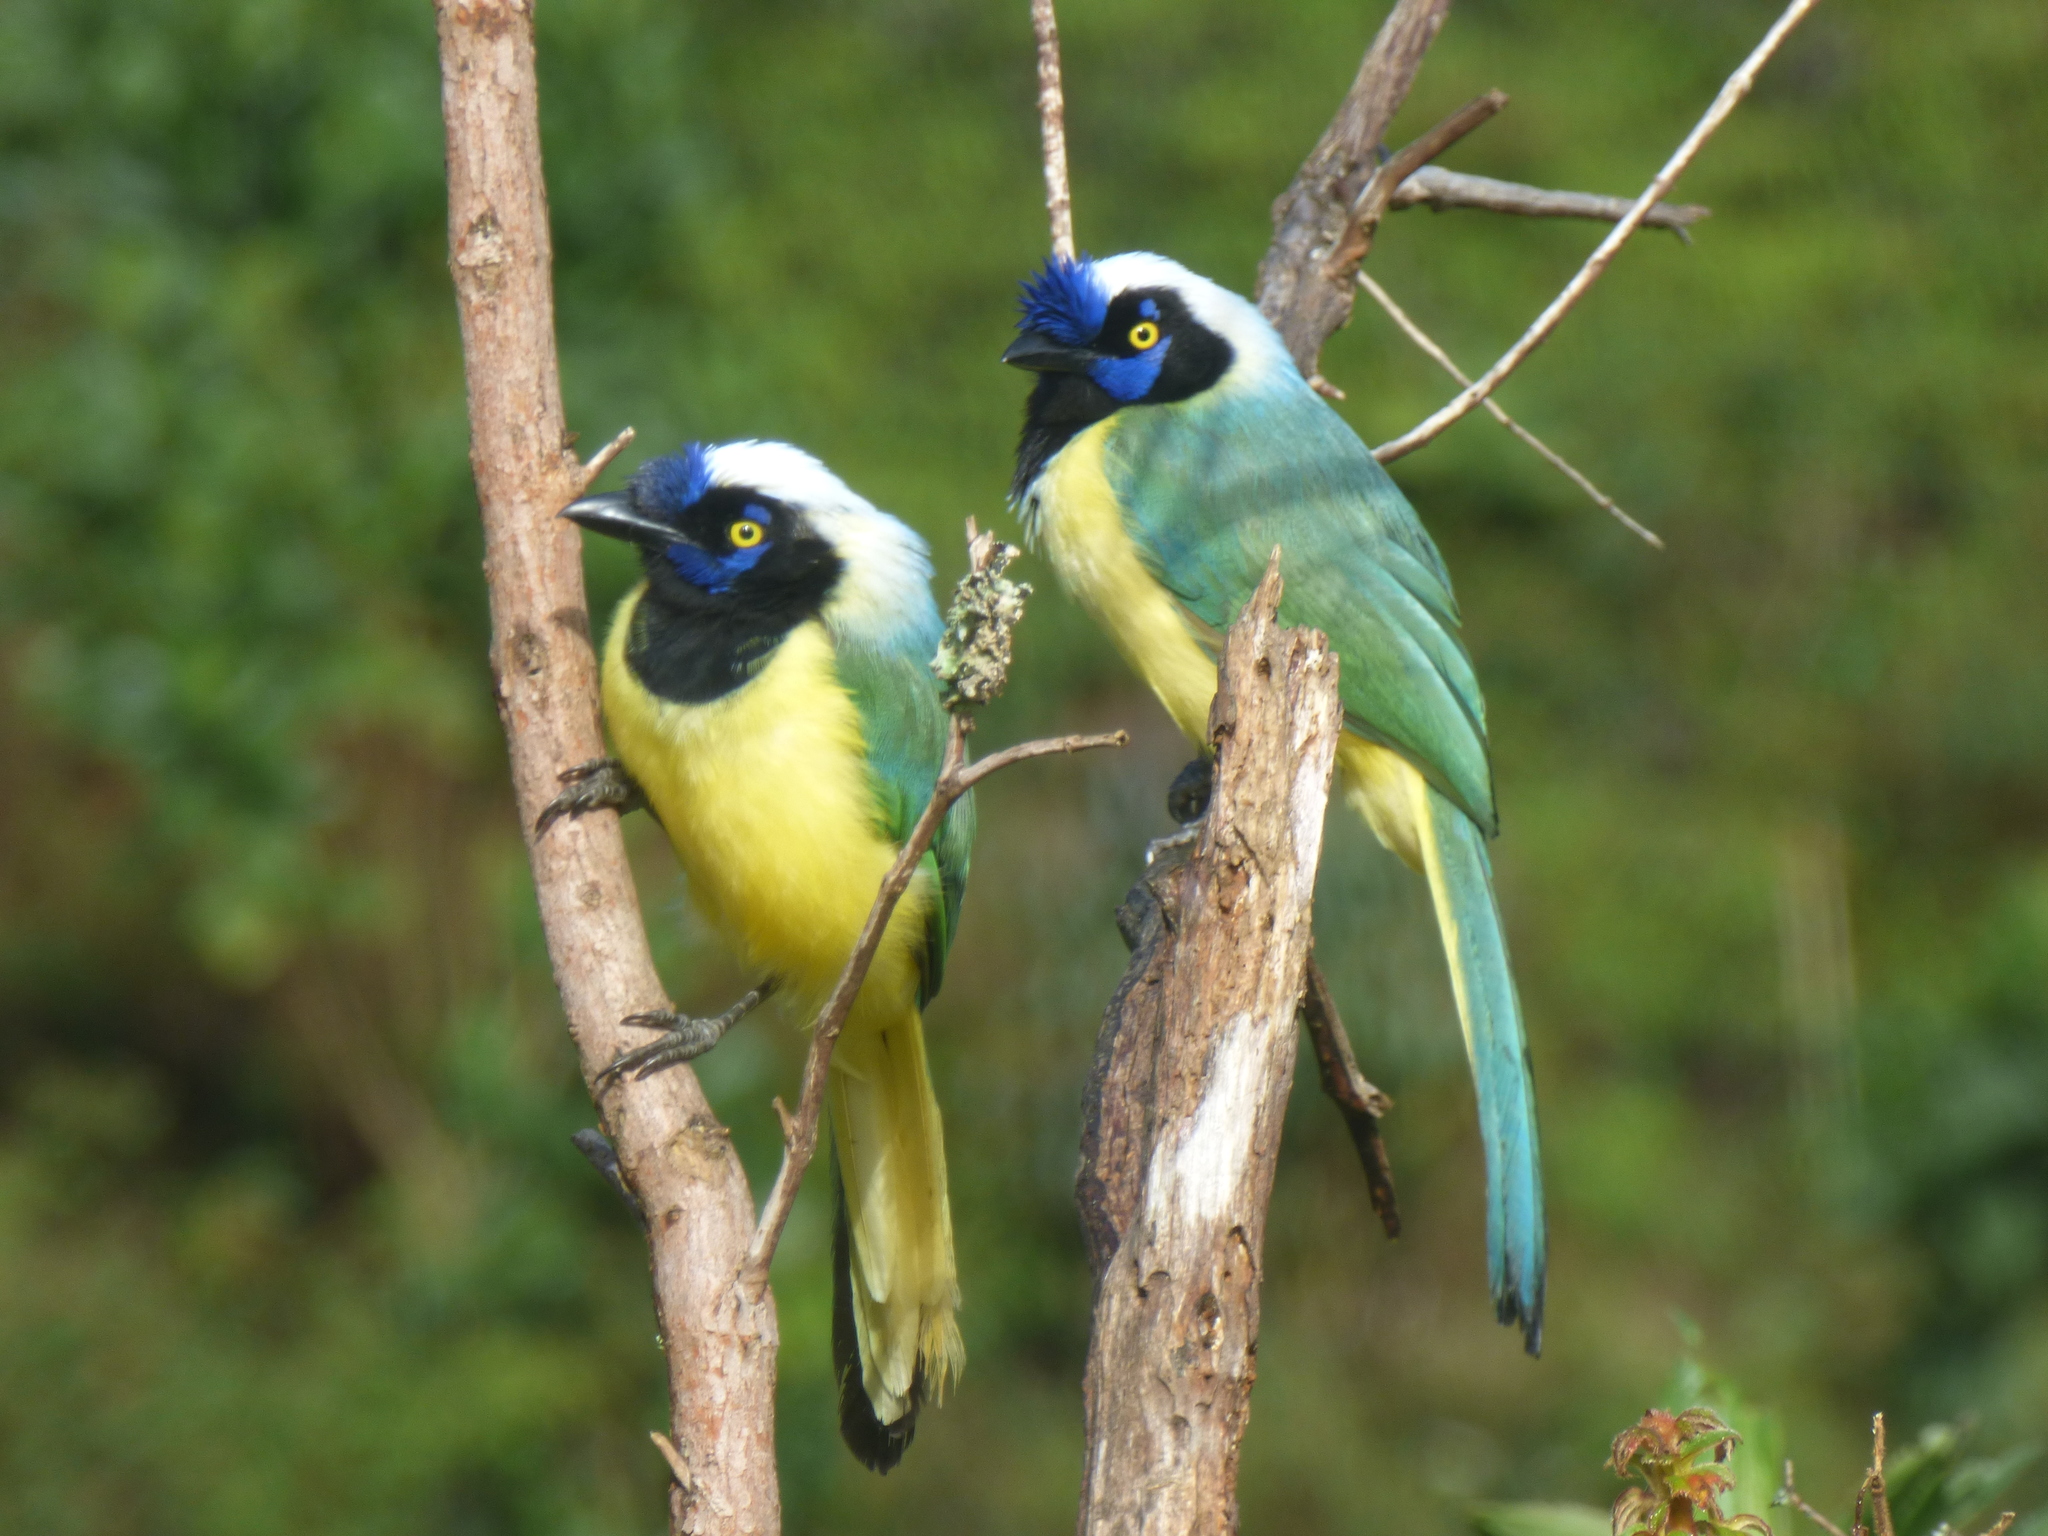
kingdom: Animalia
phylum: Chordata
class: Aves
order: Passeriformes
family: Corvidae
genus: Cyanocorax
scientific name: Cyanocorax yncas
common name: Green jay
